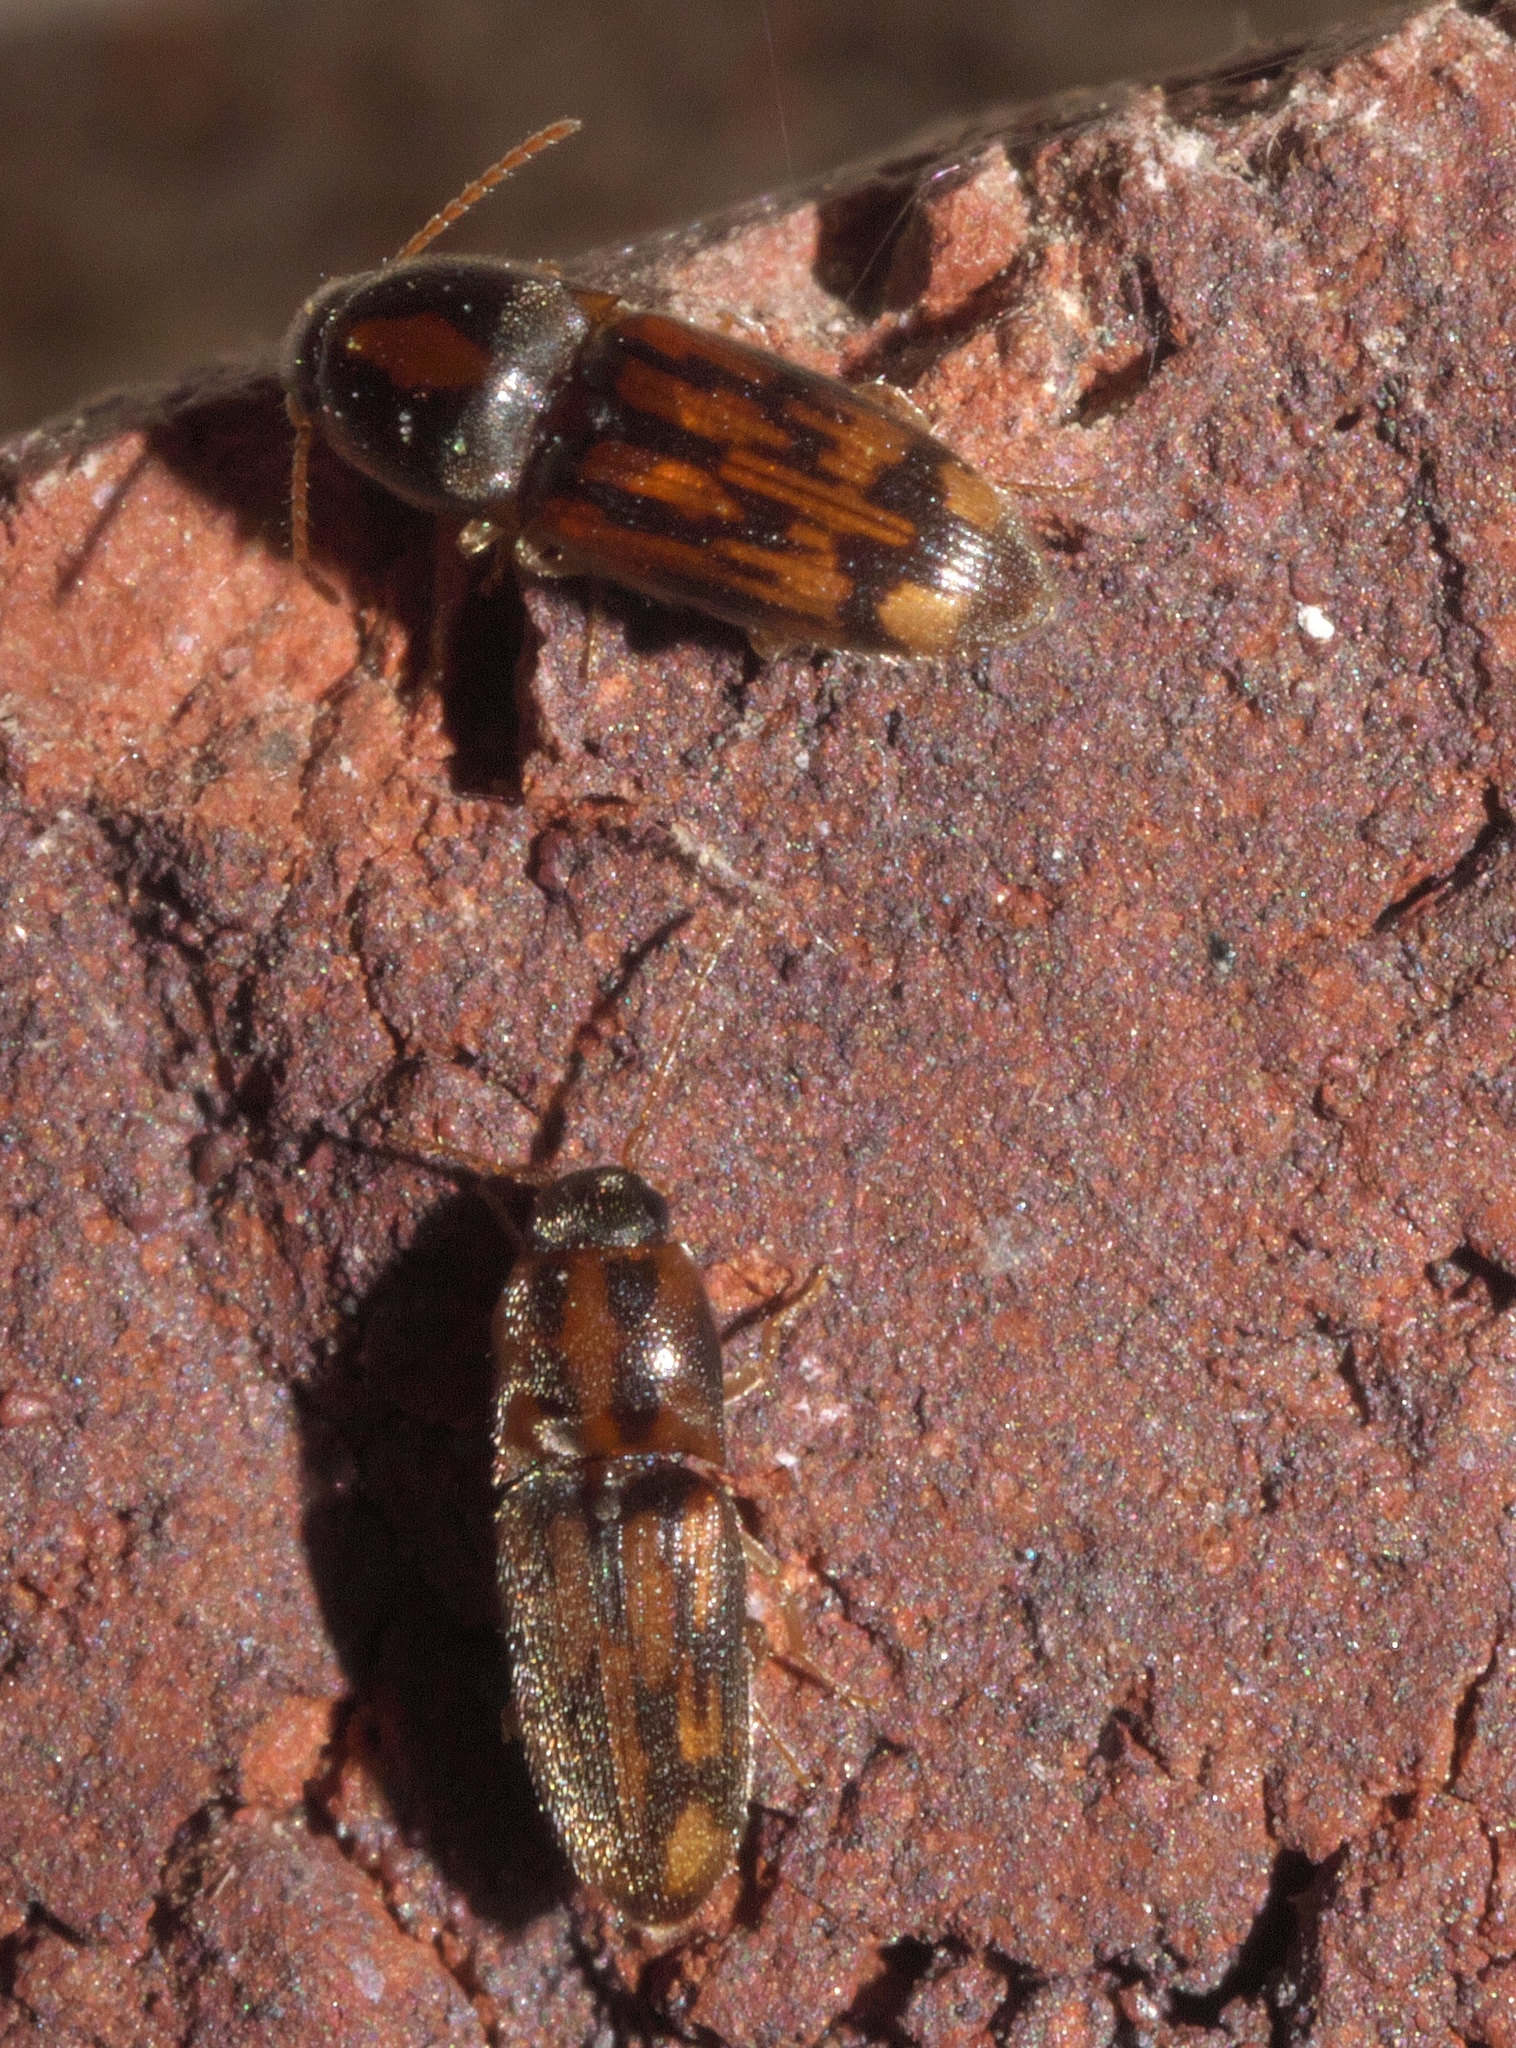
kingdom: Animalia
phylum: Arthropoda
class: Insecta
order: Coleoptera
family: Elateridae
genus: Monocrepidius
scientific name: Monocrepidius bellus
